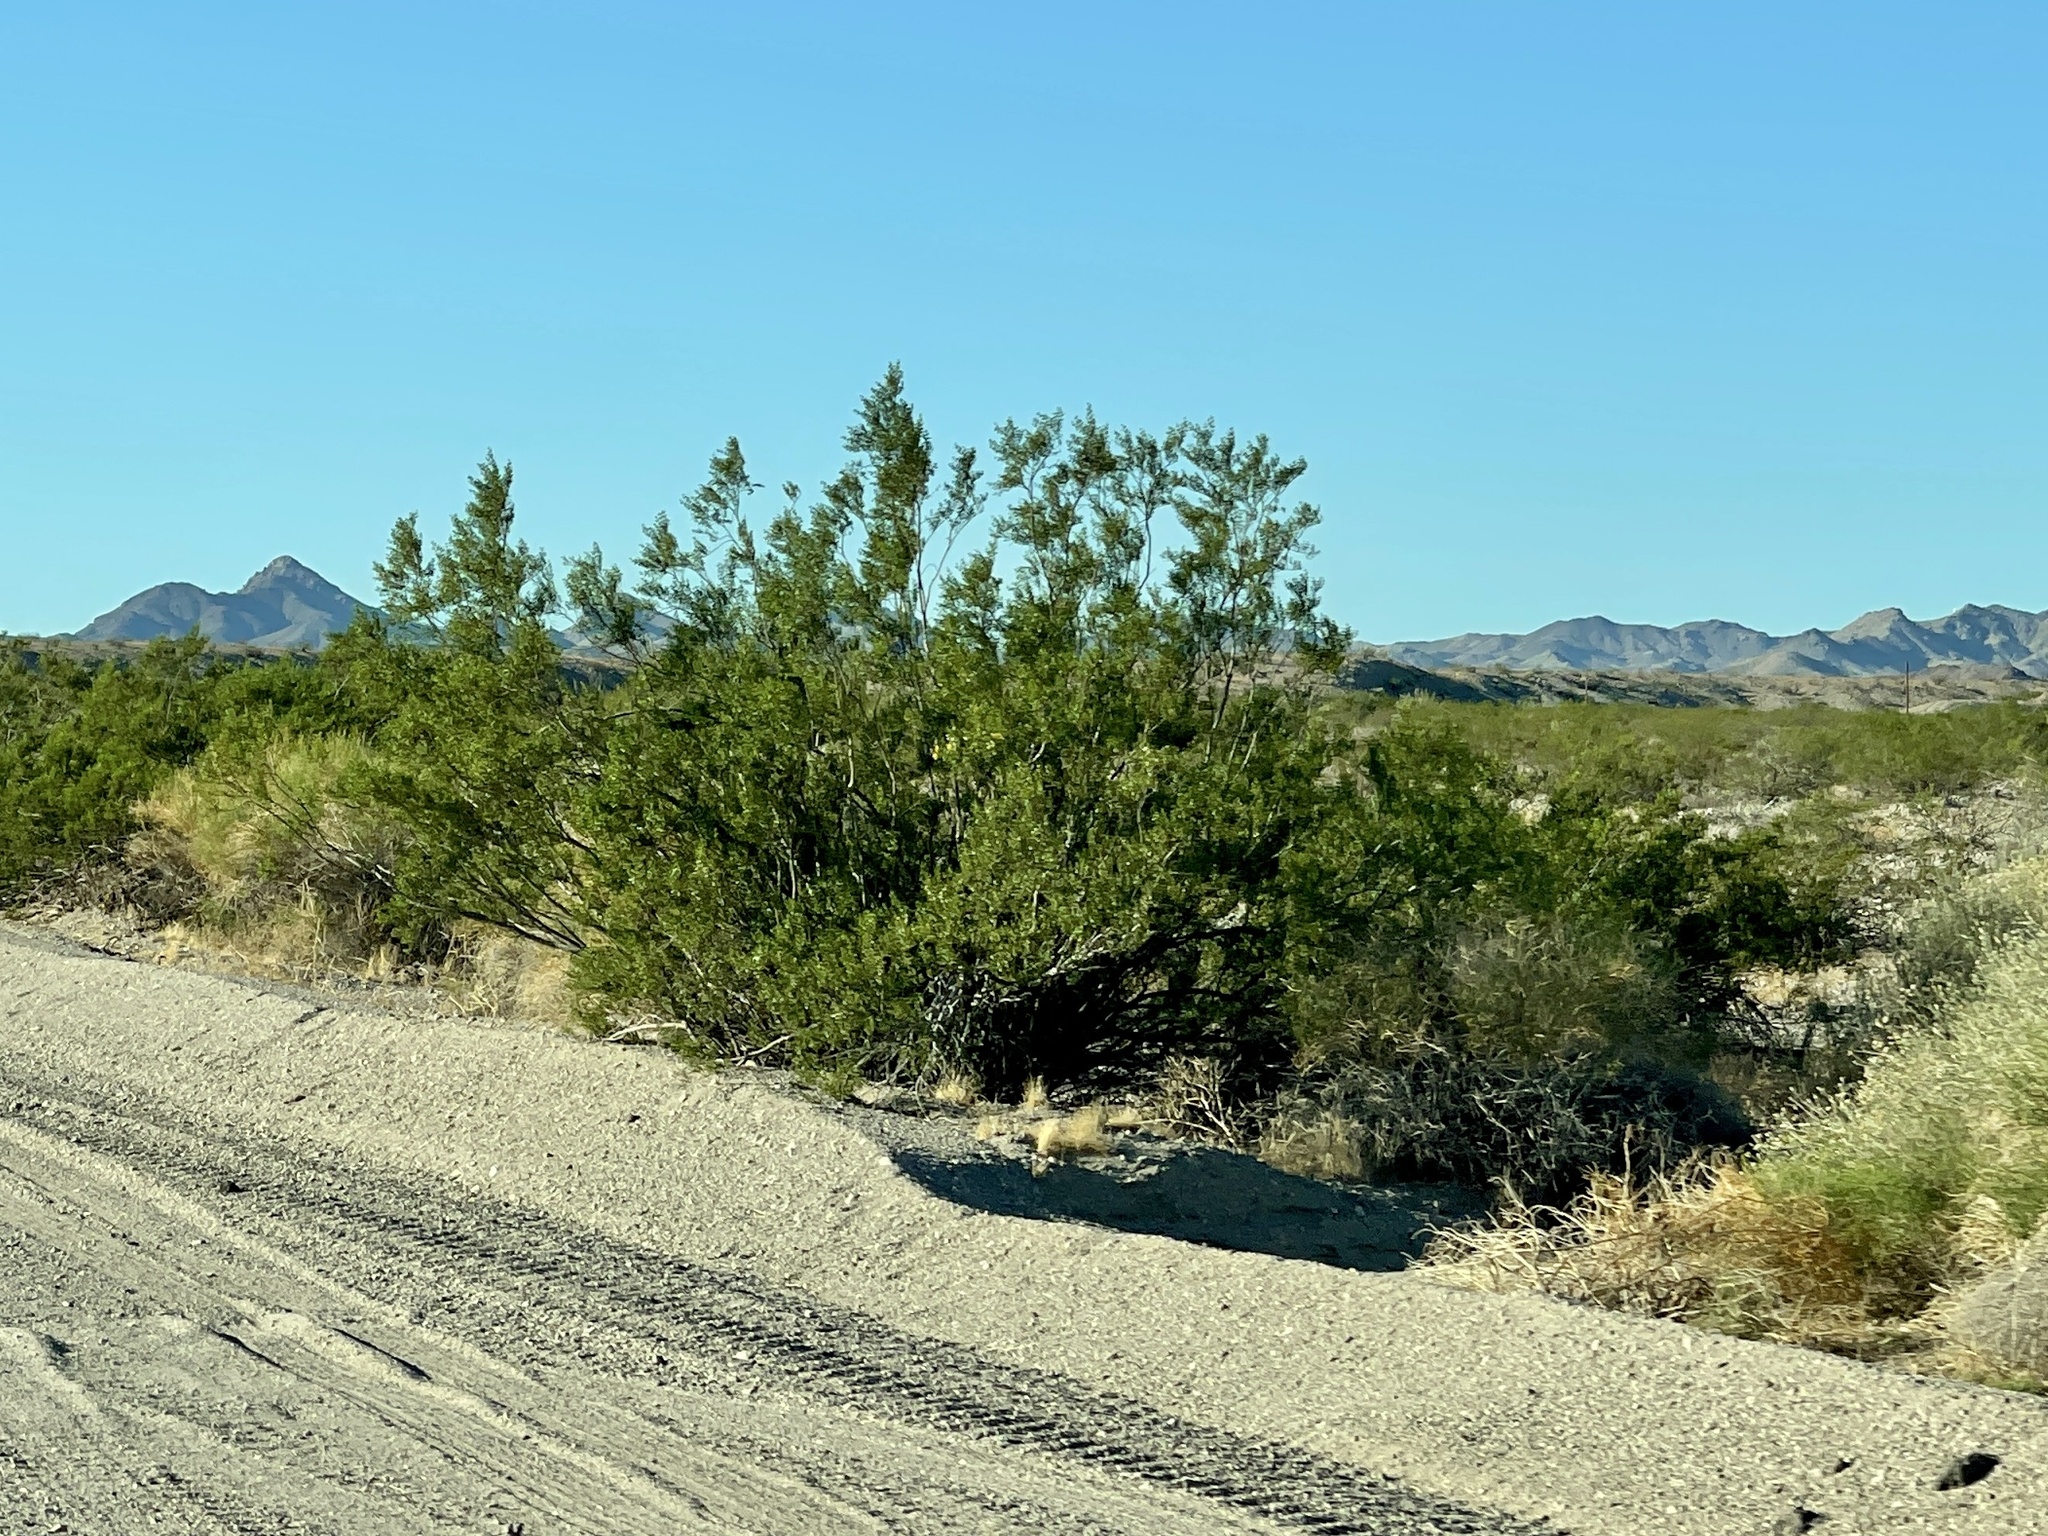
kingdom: Plantae
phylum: Tracheophyta
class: Magnoliopsida
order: Zygophyllales
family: Zygophyllaceae
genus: Larrea
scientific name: Larrea tridentata
